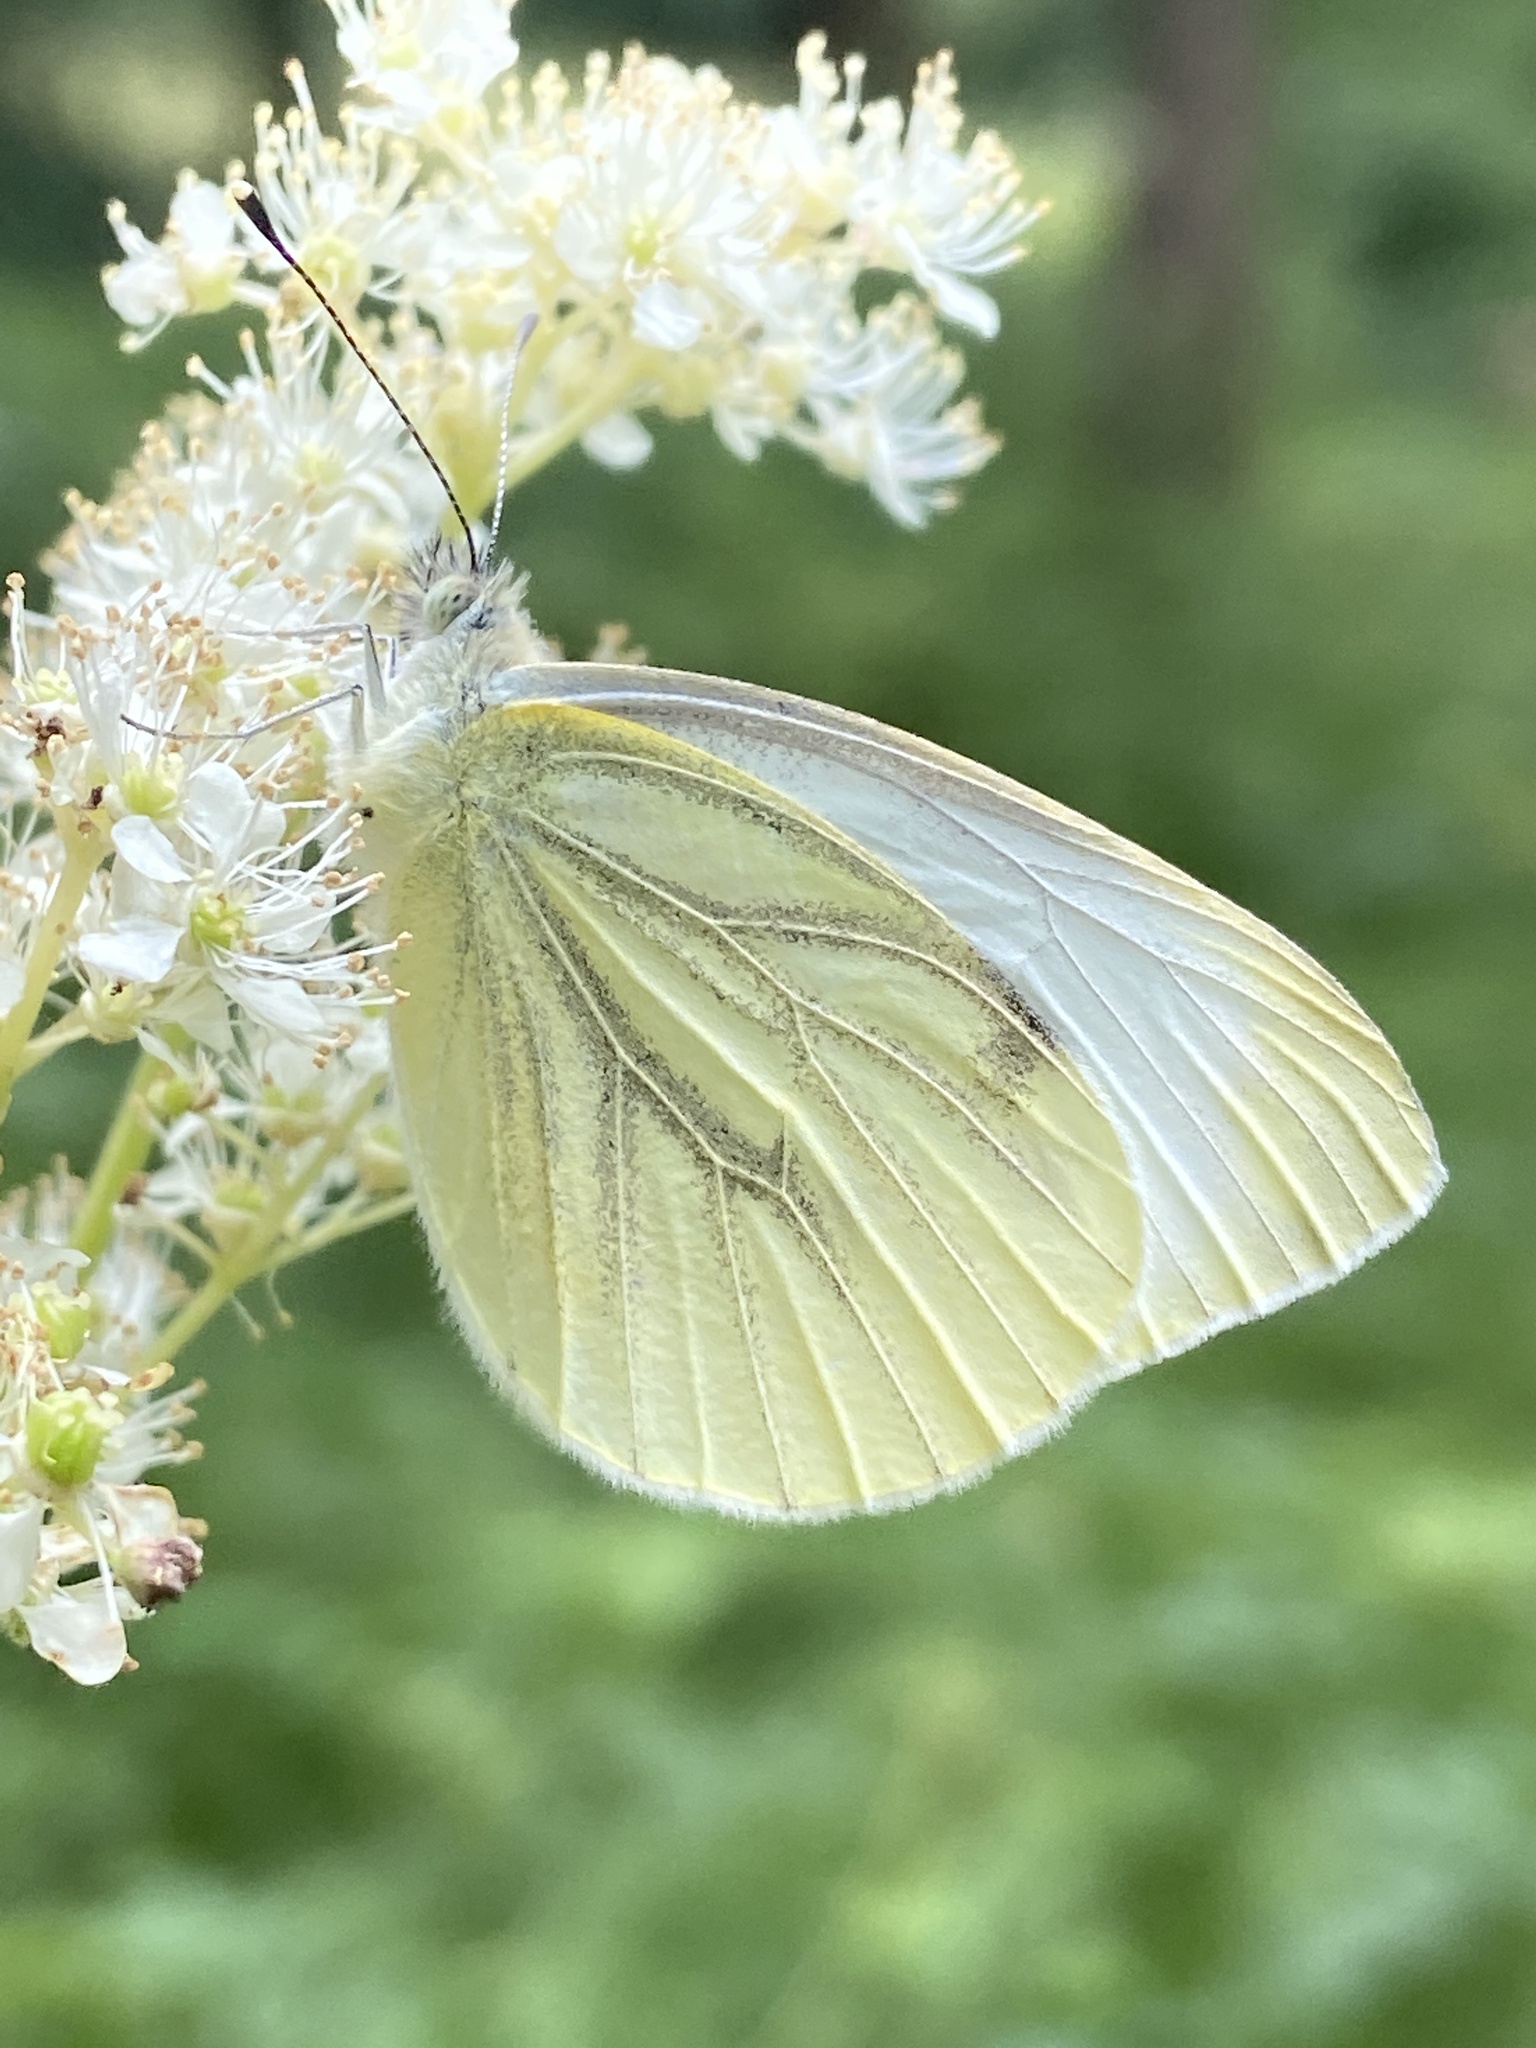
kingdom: Animalia
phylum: Arthropoda
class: Insecta
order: Lepidoptera
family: Pieridae
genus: Pieris
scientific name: Pieris napi
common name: Green-veined white
